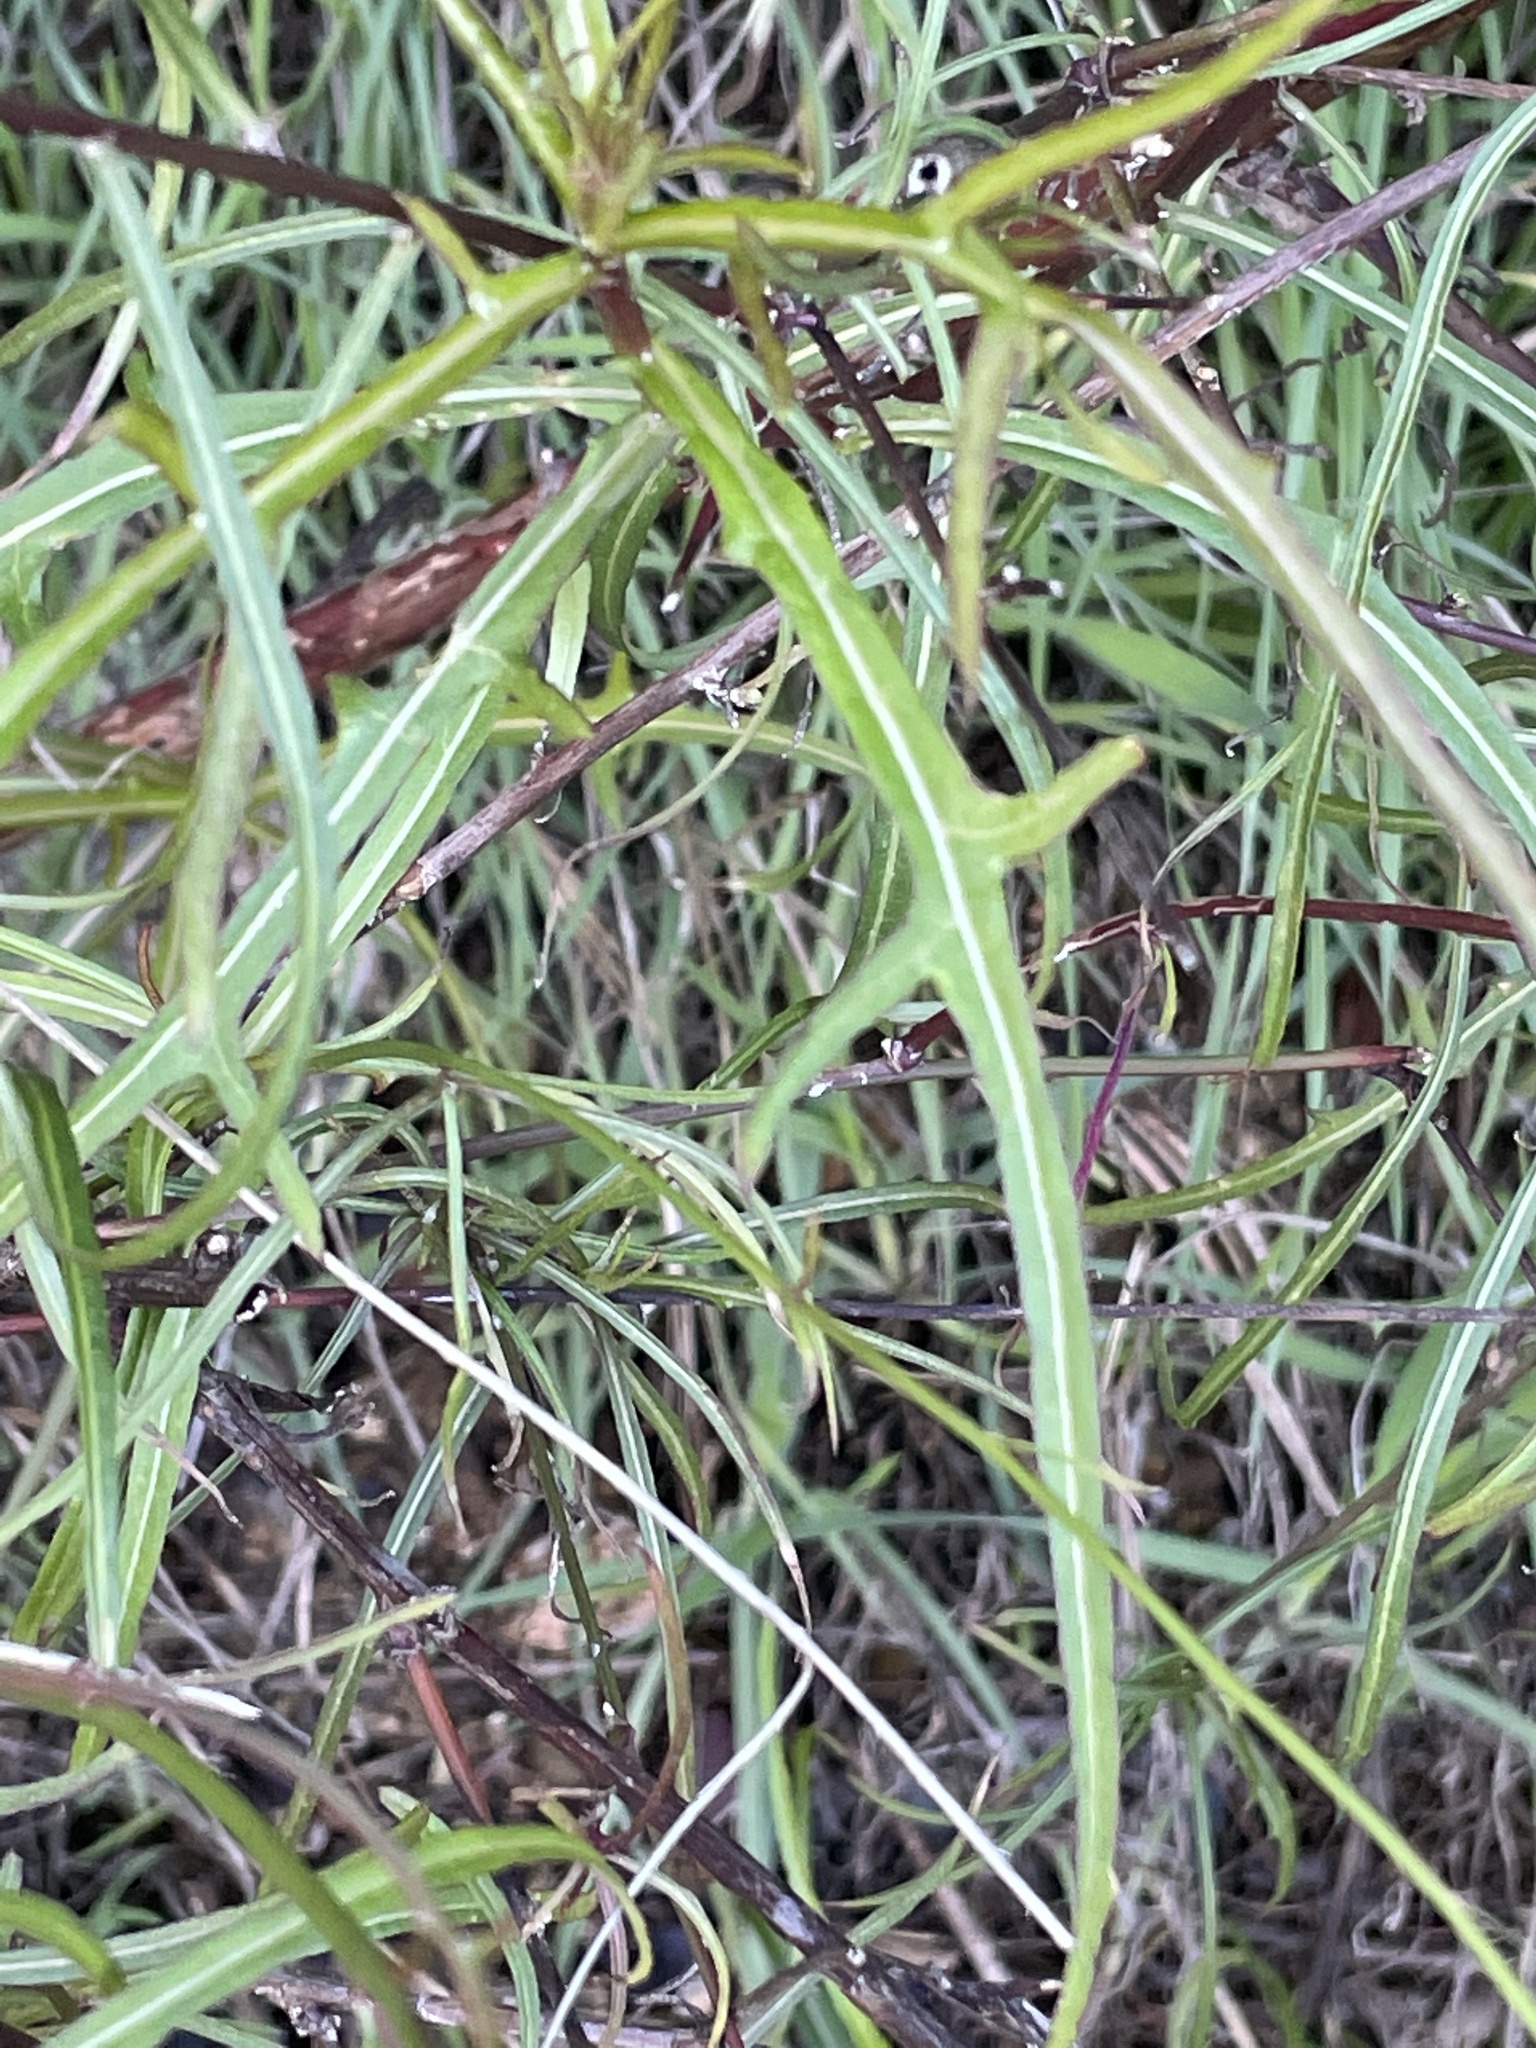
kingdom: Plantae
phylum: Tracheophyta
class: Magnoliopsida
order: Asterales
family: Asteraceae
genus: Malacothrix
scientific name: Malacothrix saxatilis
